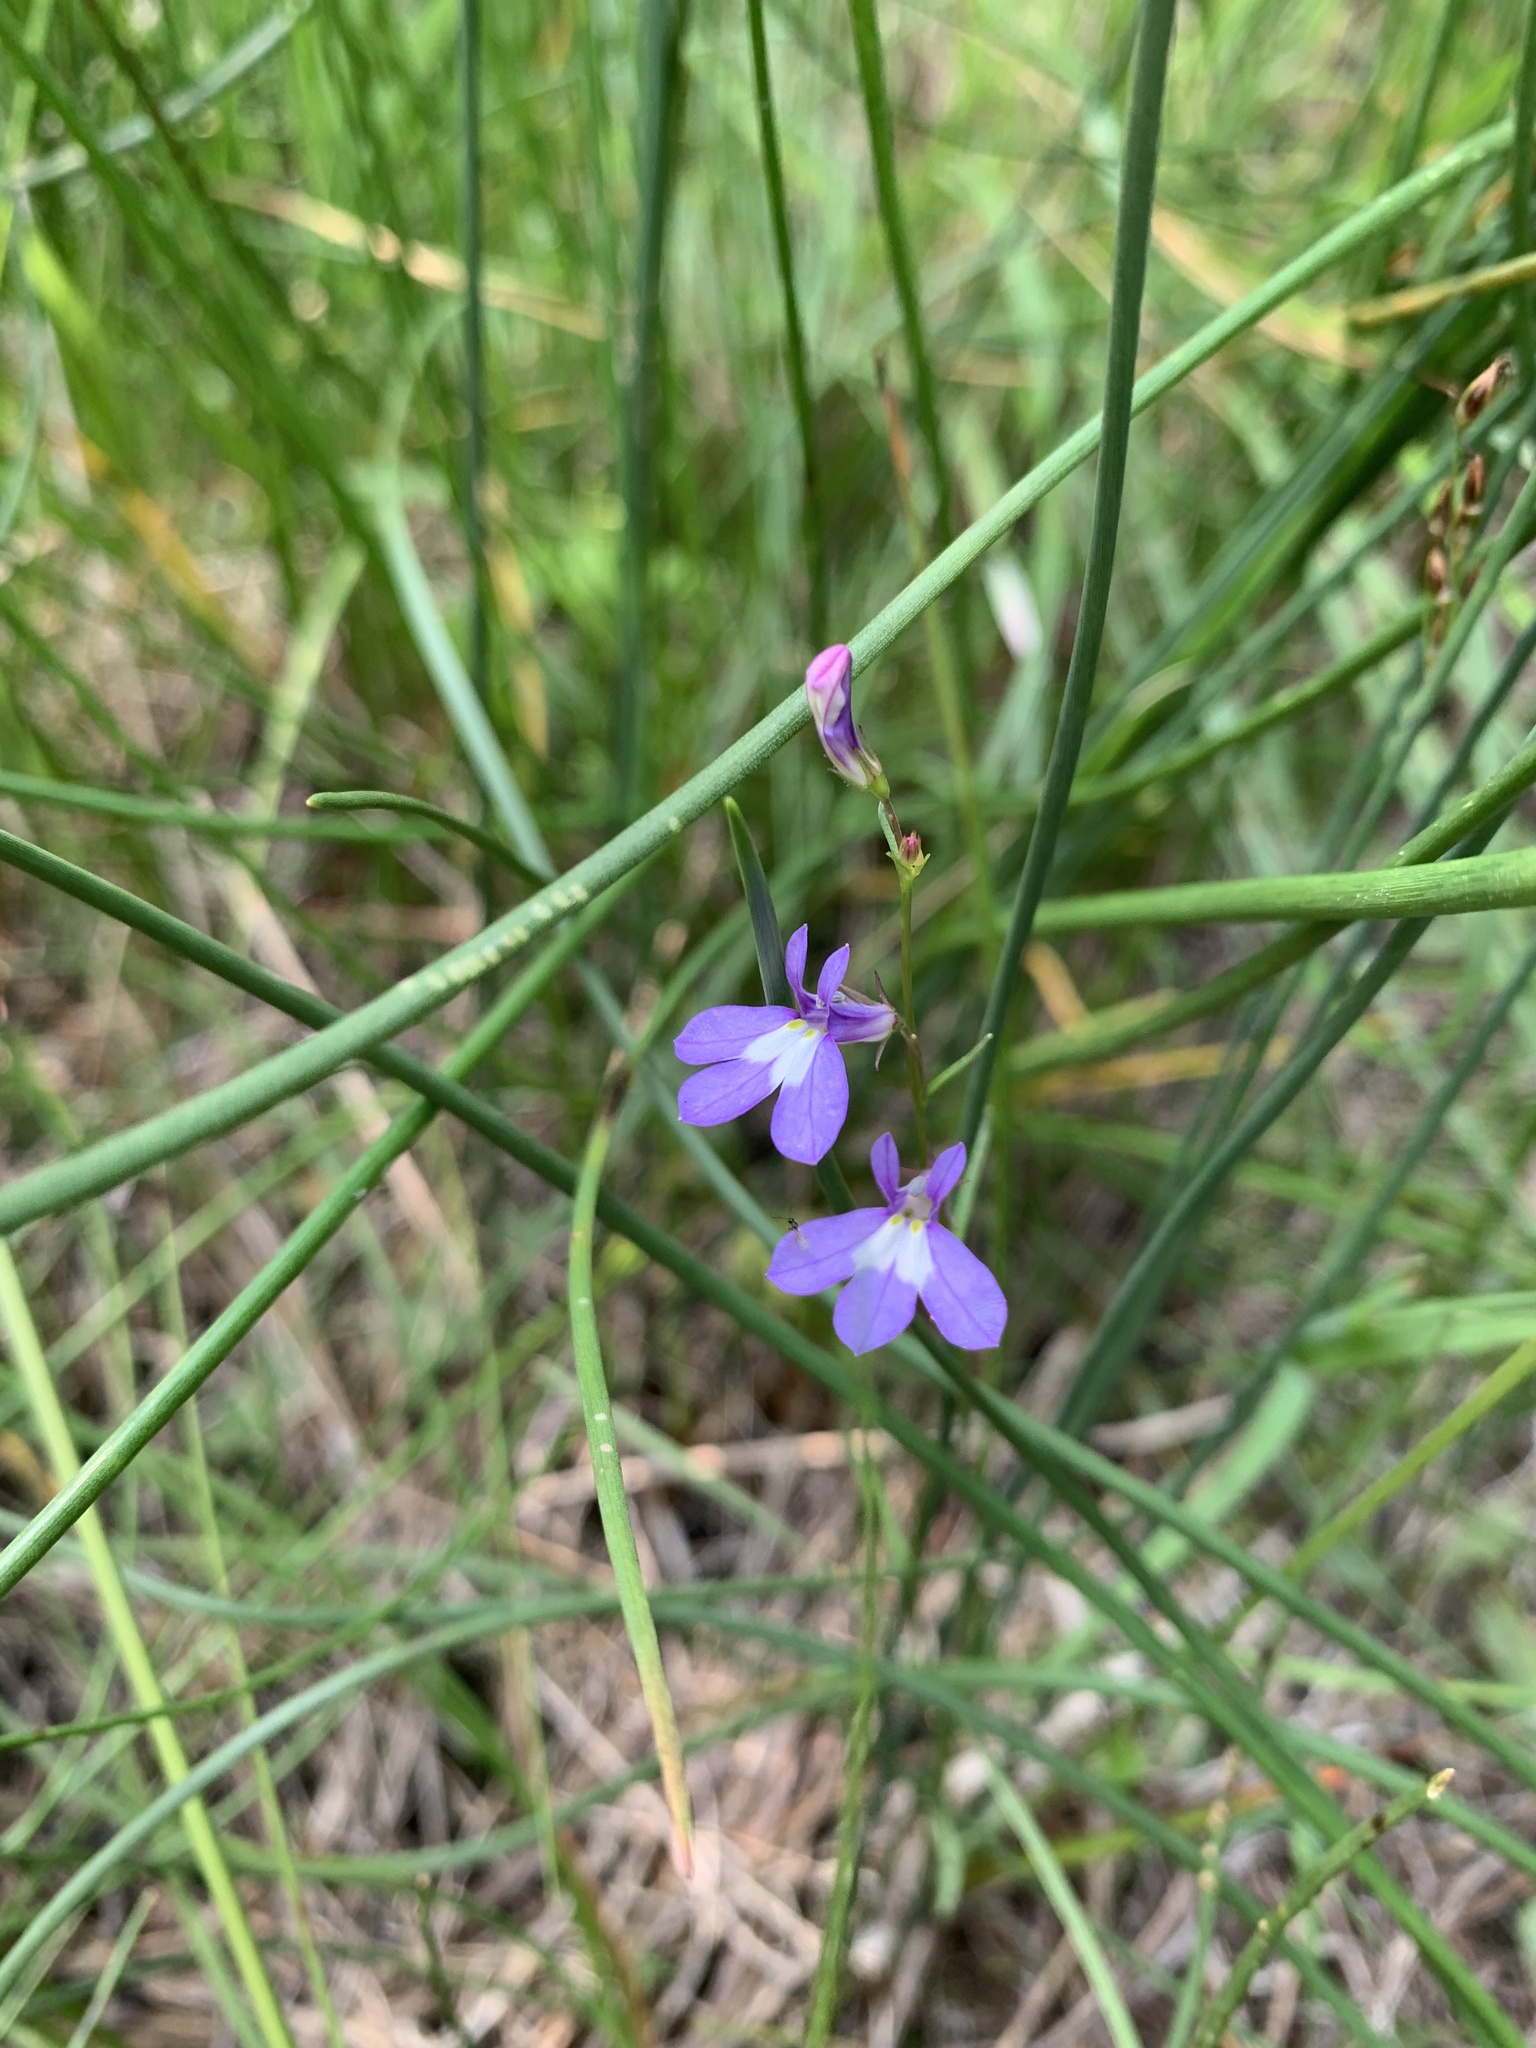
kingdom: Plantae
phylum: Tracheophyta
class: Magnoliopsida
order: Asterales
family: Campanulaceae
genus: Lobelia
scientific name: Lobelia kalmii
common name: Kalm's lobelia
